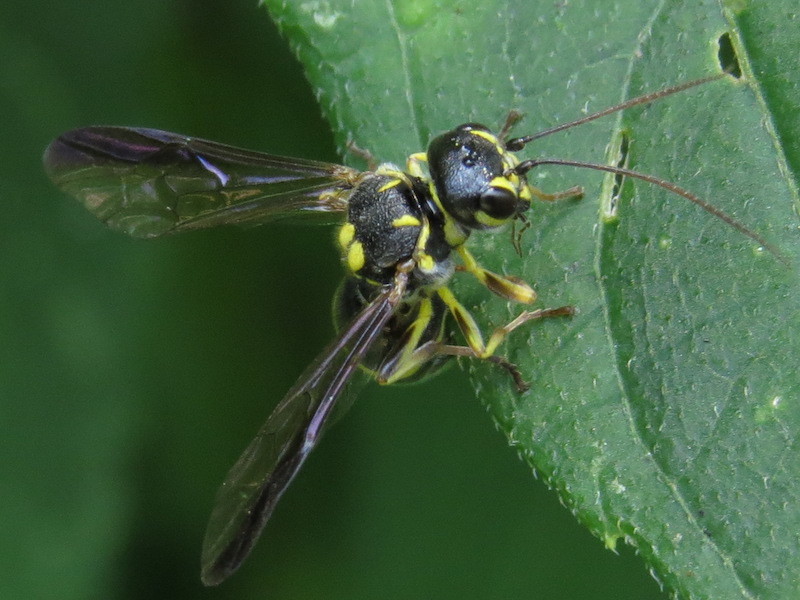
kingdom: Animalia
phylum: Arthropoda
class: Insecta
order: Hymenoptera
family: Trigonalidae
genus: Taeniogonalos
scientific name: Taeniogonalos gundlachii
